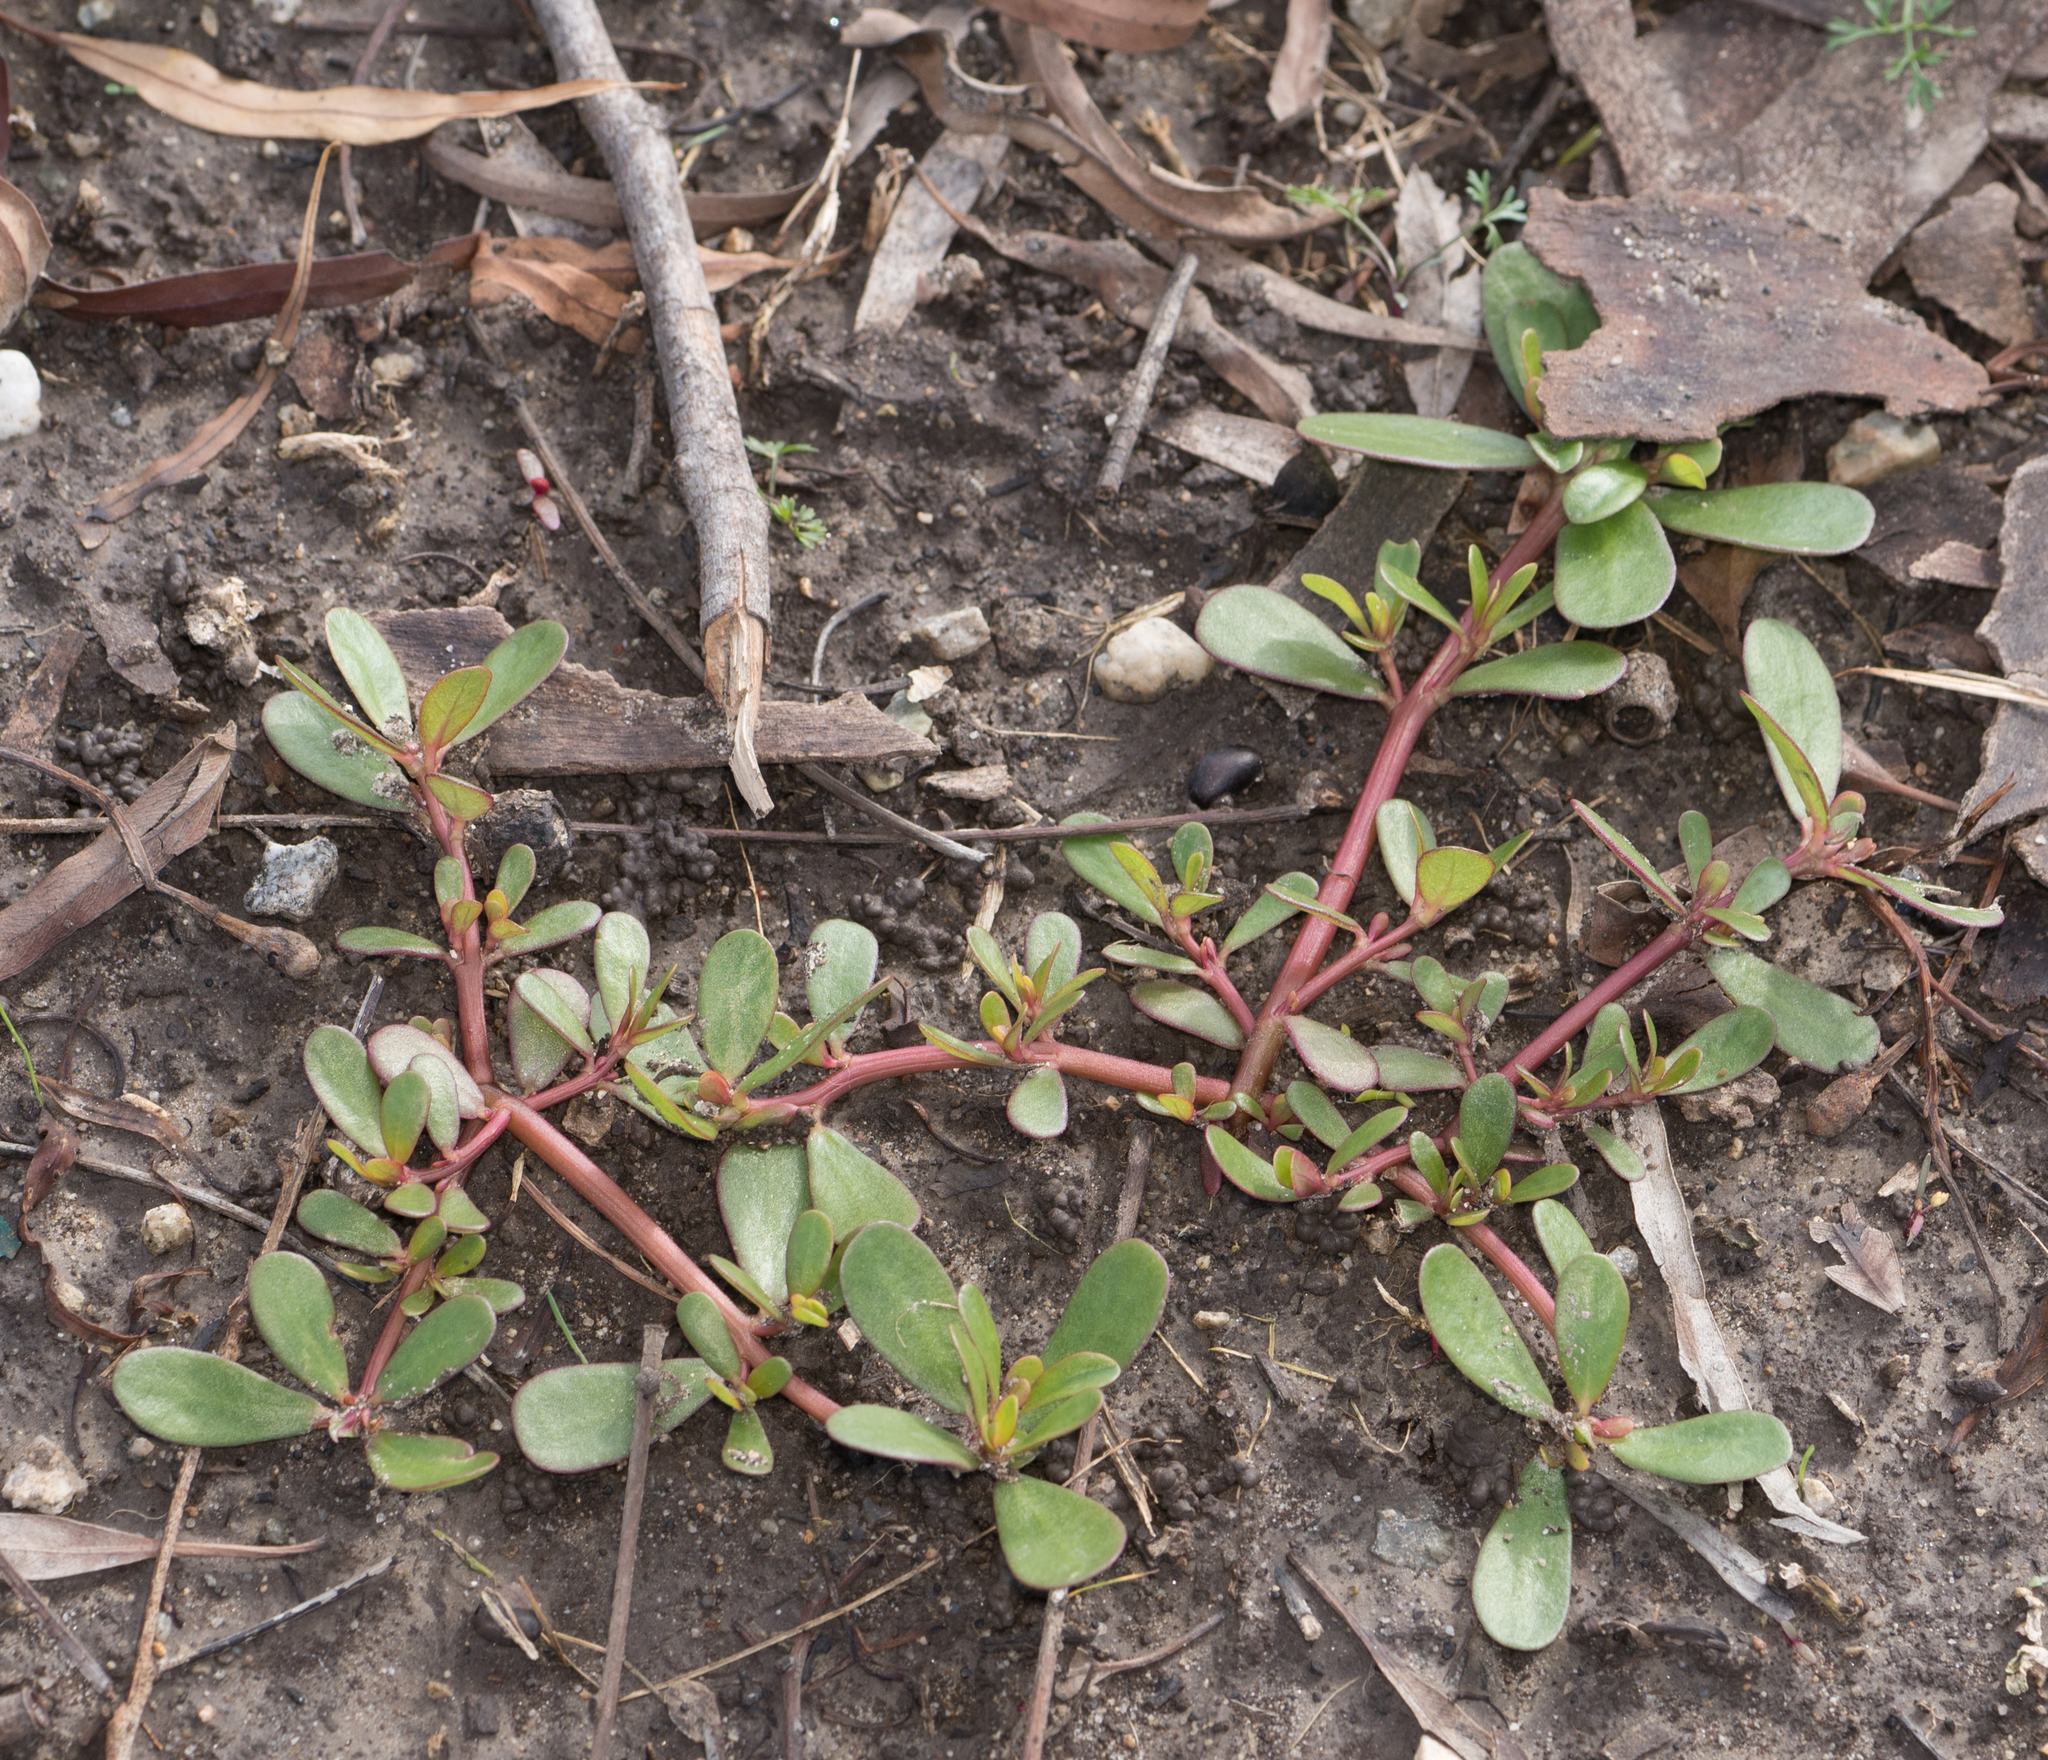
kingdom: Plantae
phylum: Tracheophyta
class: Magnoliopsida
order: Caryophyllales
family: Portulacaceae
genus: Portulaca
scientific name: Portulaca oleracea
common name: Common purslane
